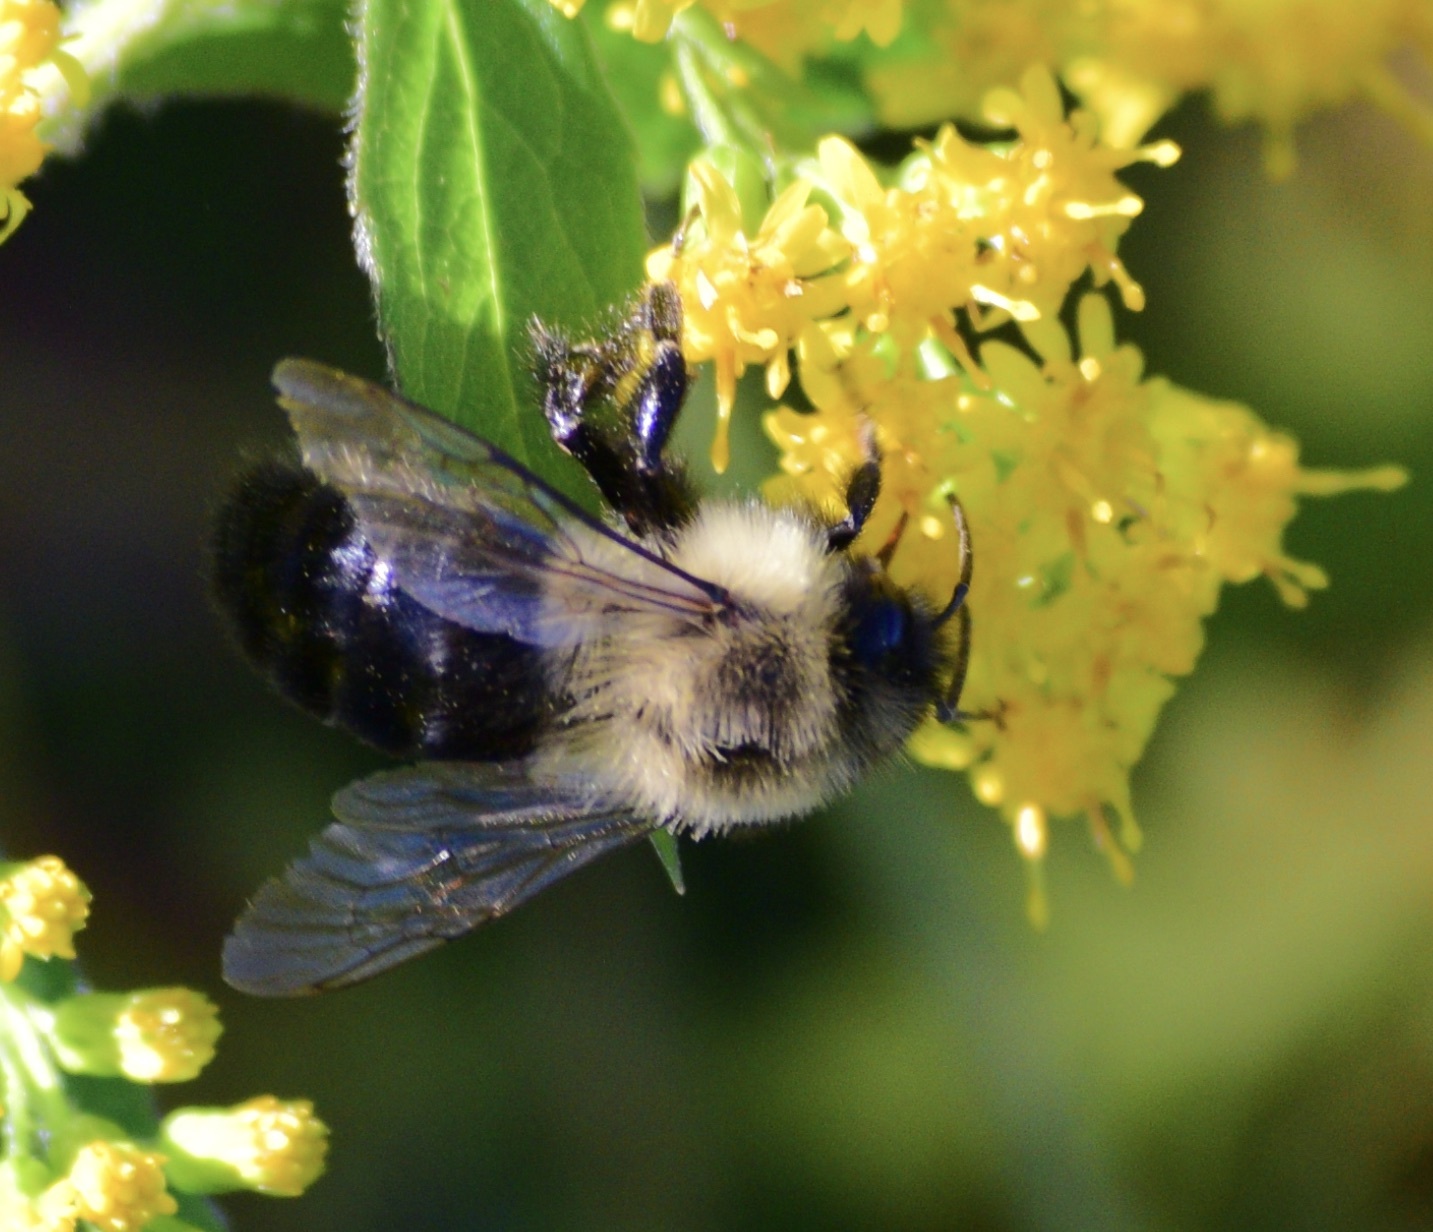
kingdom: Animalia
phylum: Arthropoda
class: Insecta
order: Hymenoptera
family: Apidae
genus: Bombus
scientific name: Bombus impatiens
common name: Common eastern bumble bee
